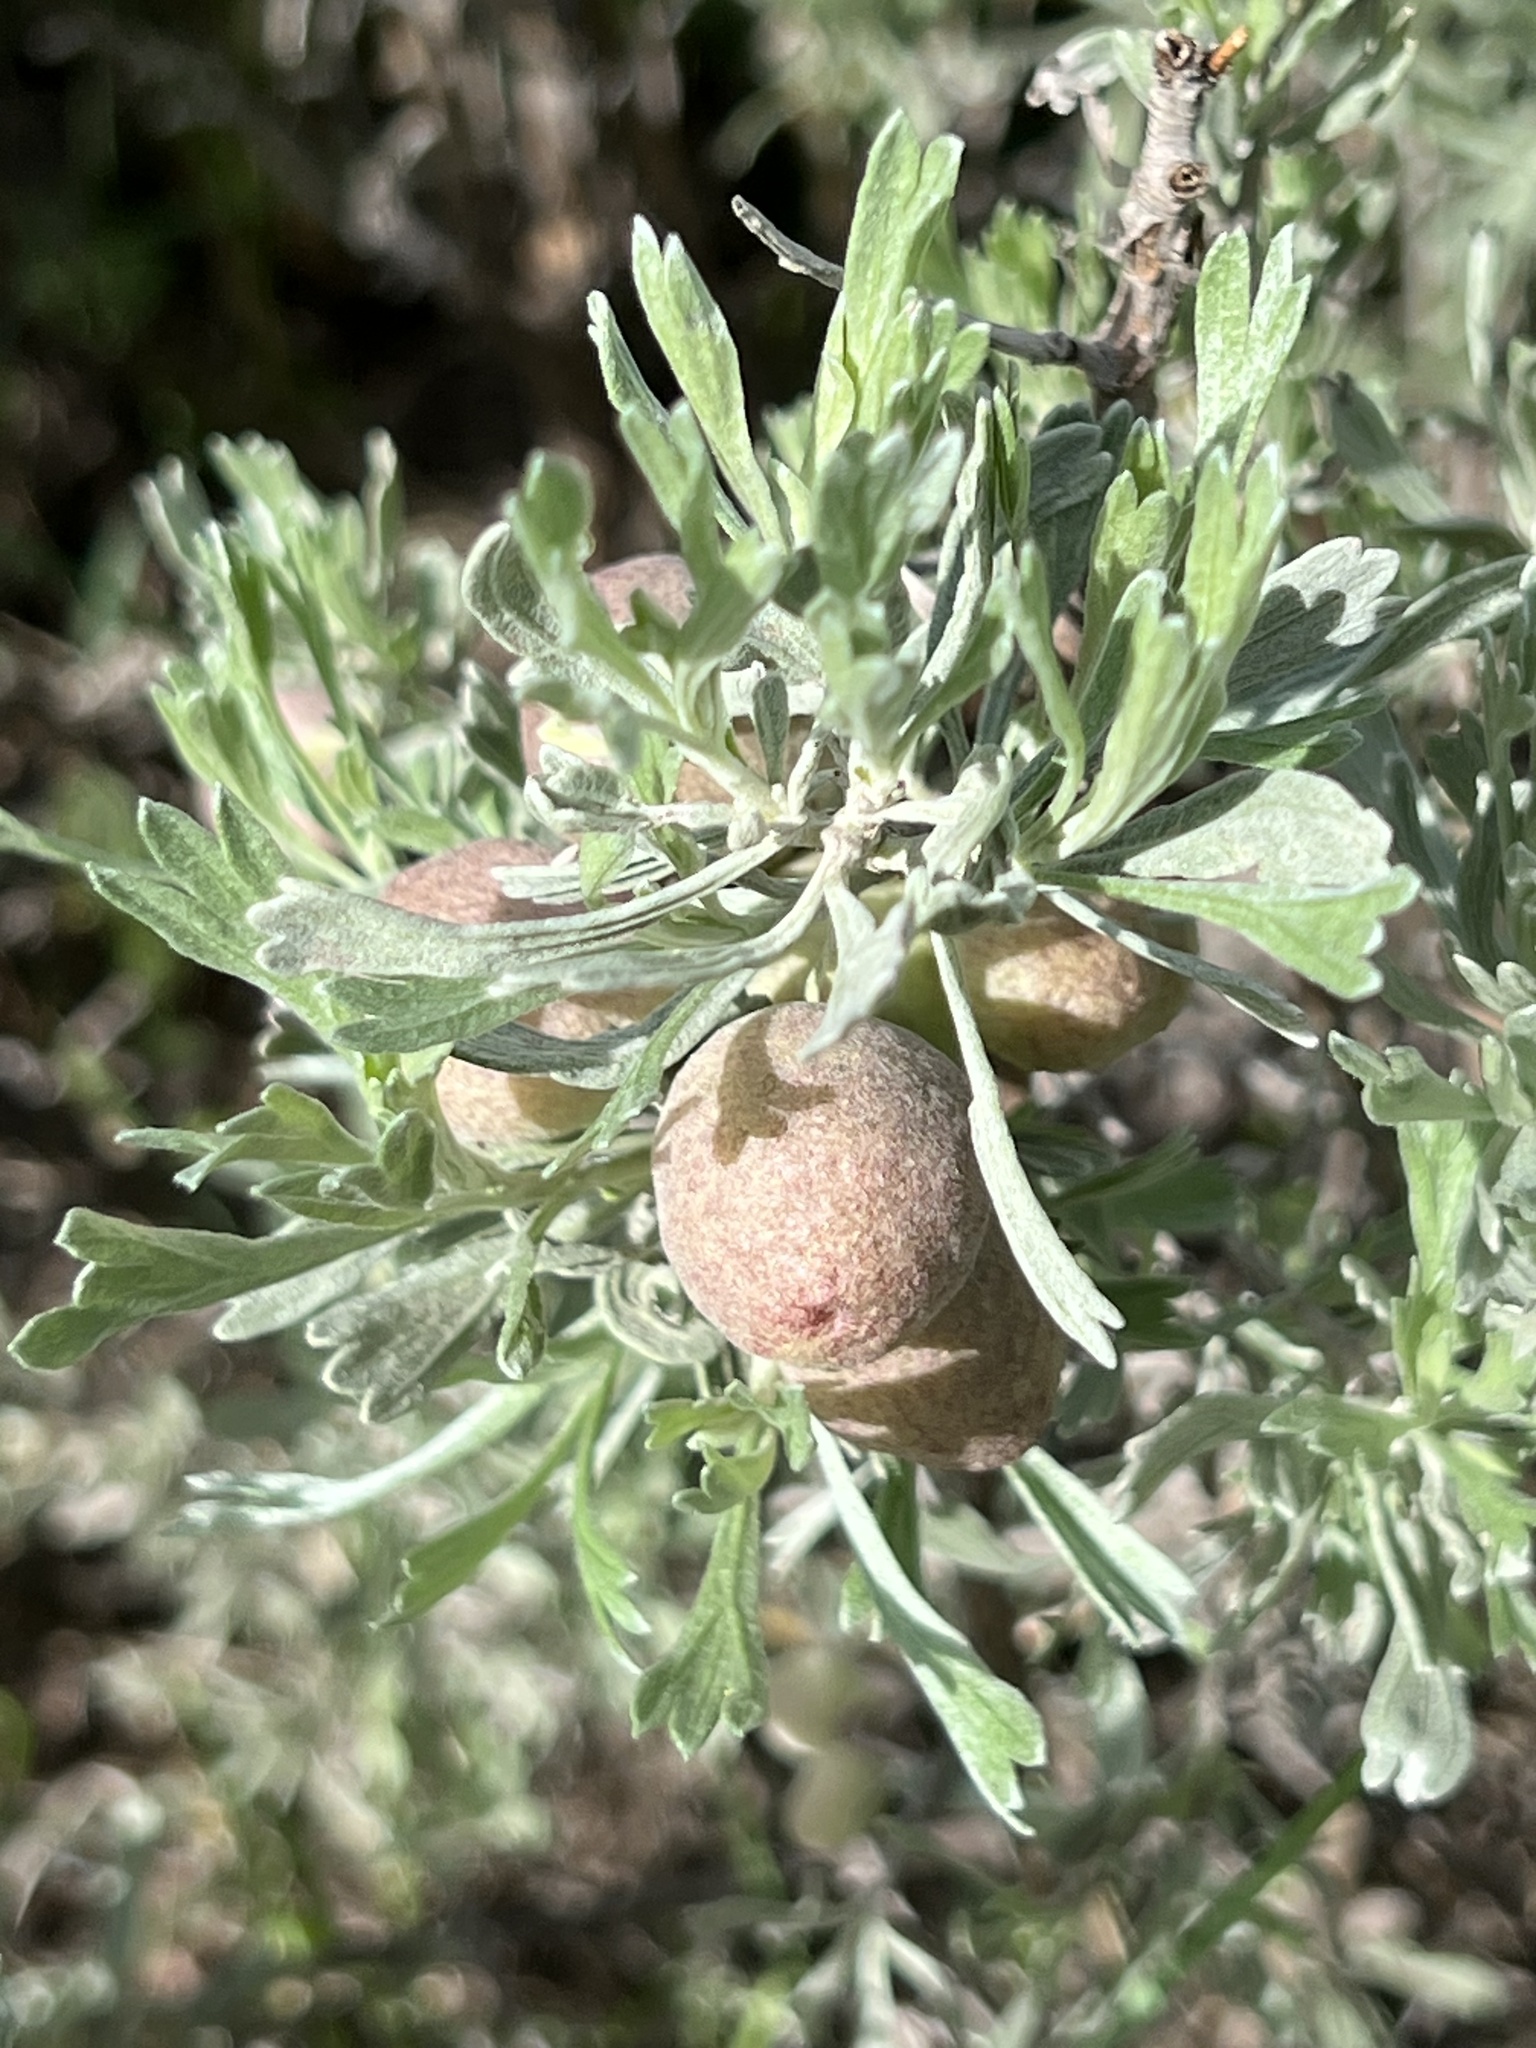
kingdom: Plantae
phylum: Tracheophyta
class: Magnoliopsida
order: Asterales
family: Asteraceae
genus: Artemisia
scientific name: Artemisia tridentata
